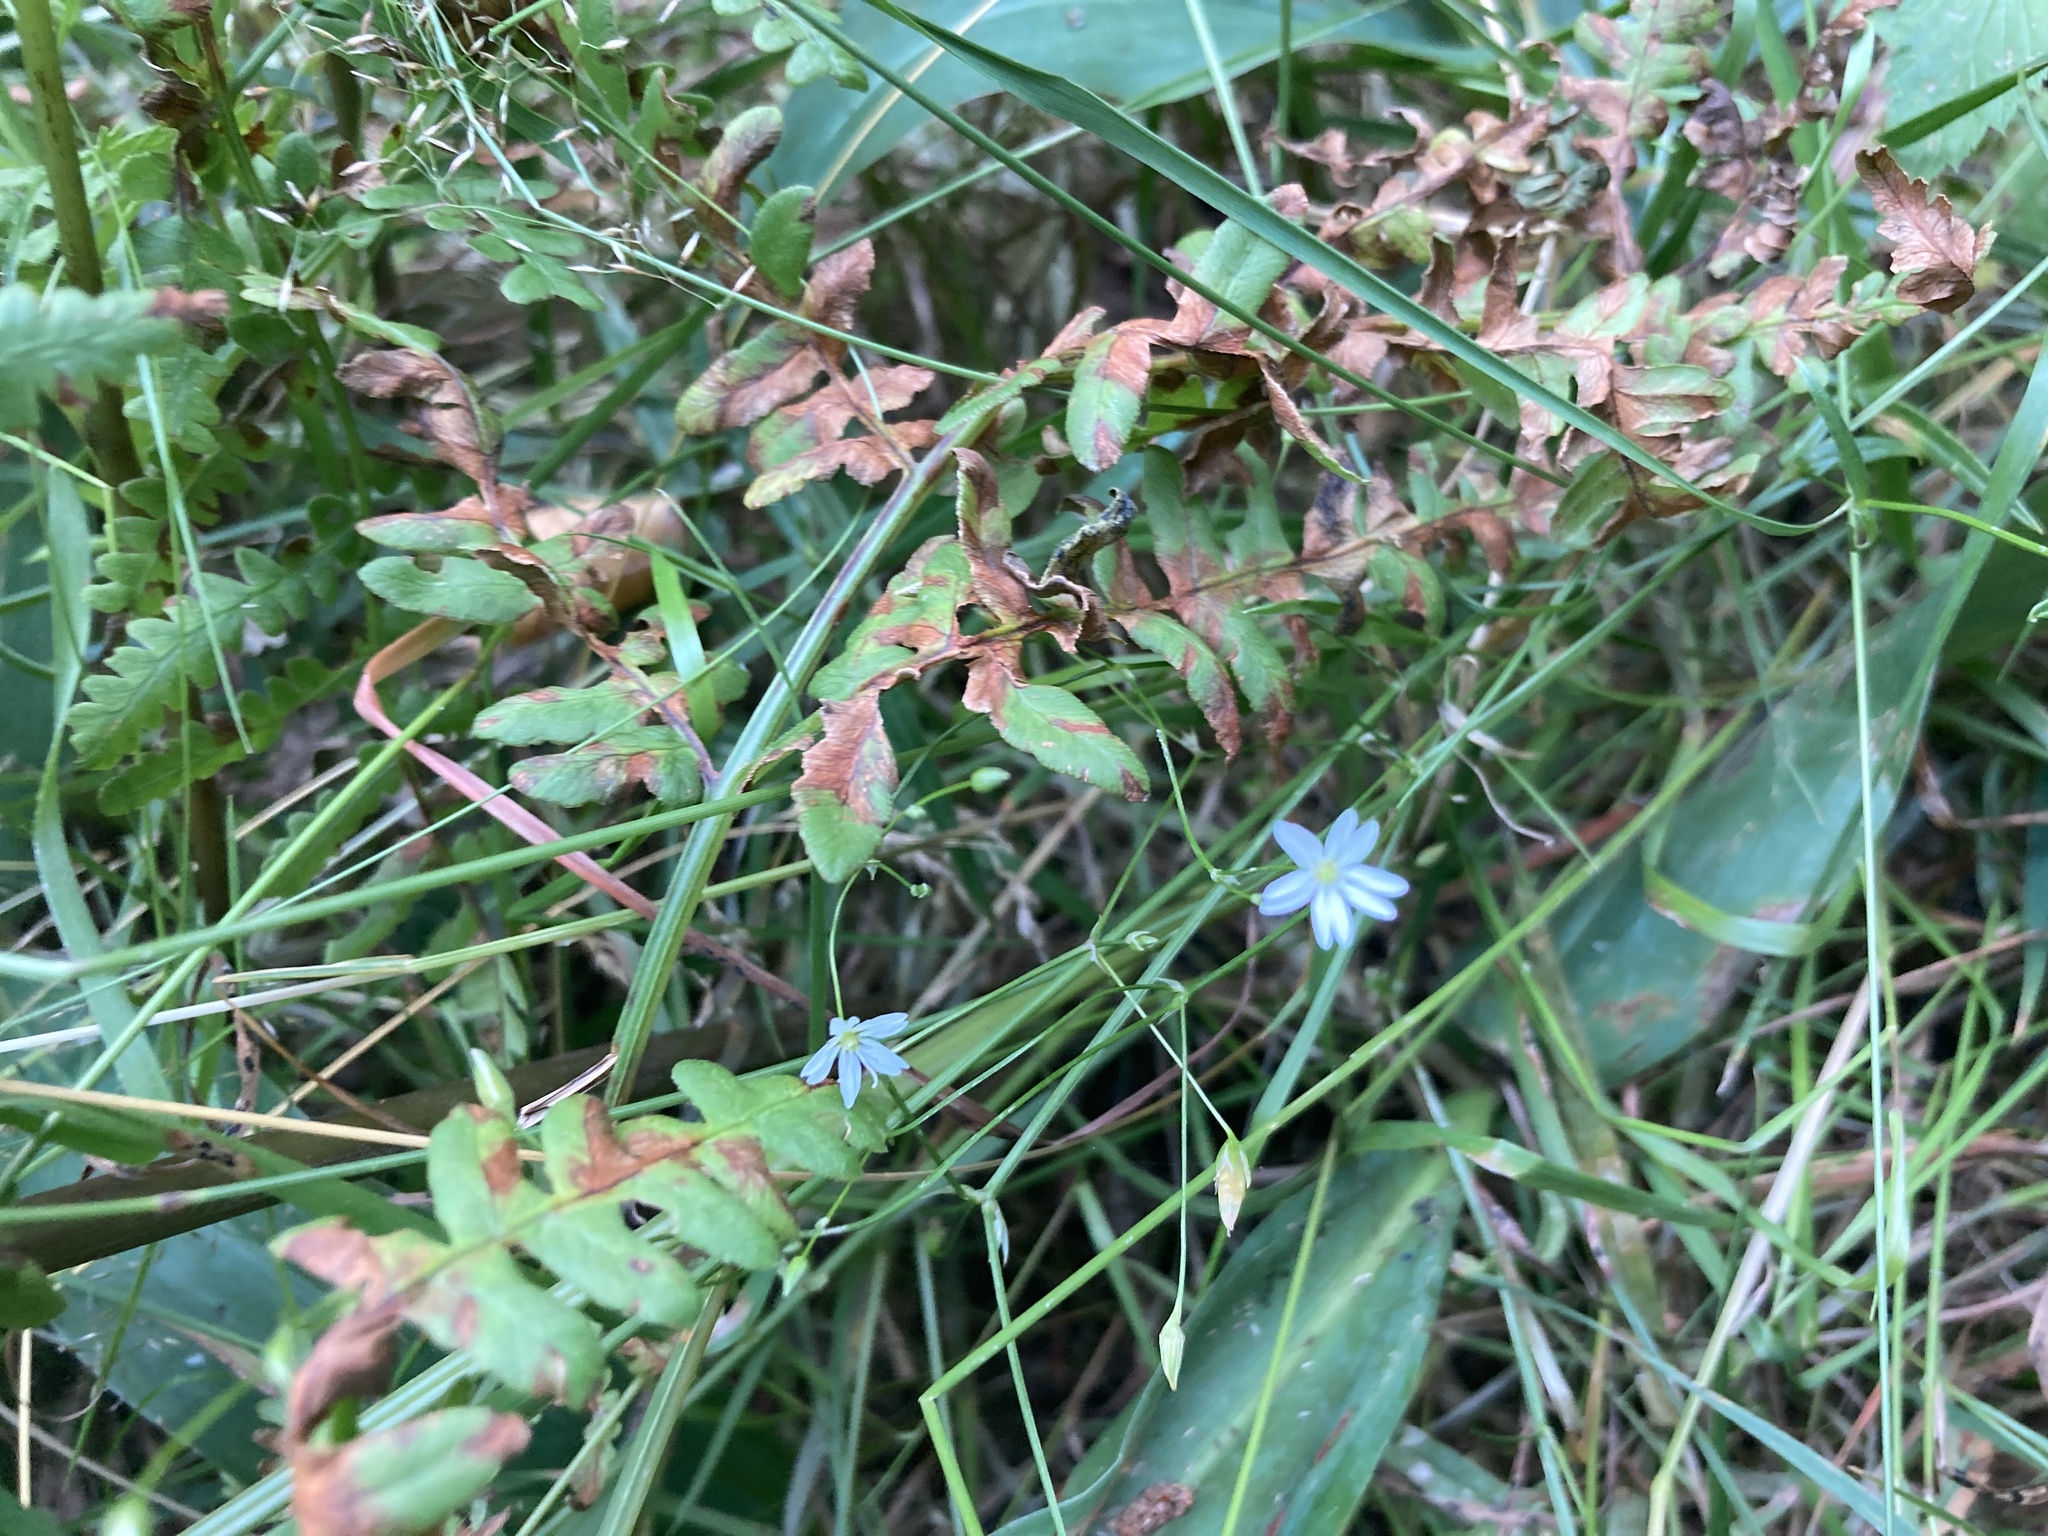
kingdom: Plantae
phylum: Tracheophyta
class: Magnoliopsida
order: Caryophyllales
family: Caryophyllaceae
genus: Stellaria
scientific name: Stellaria graminea
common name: Grass-like starwort
